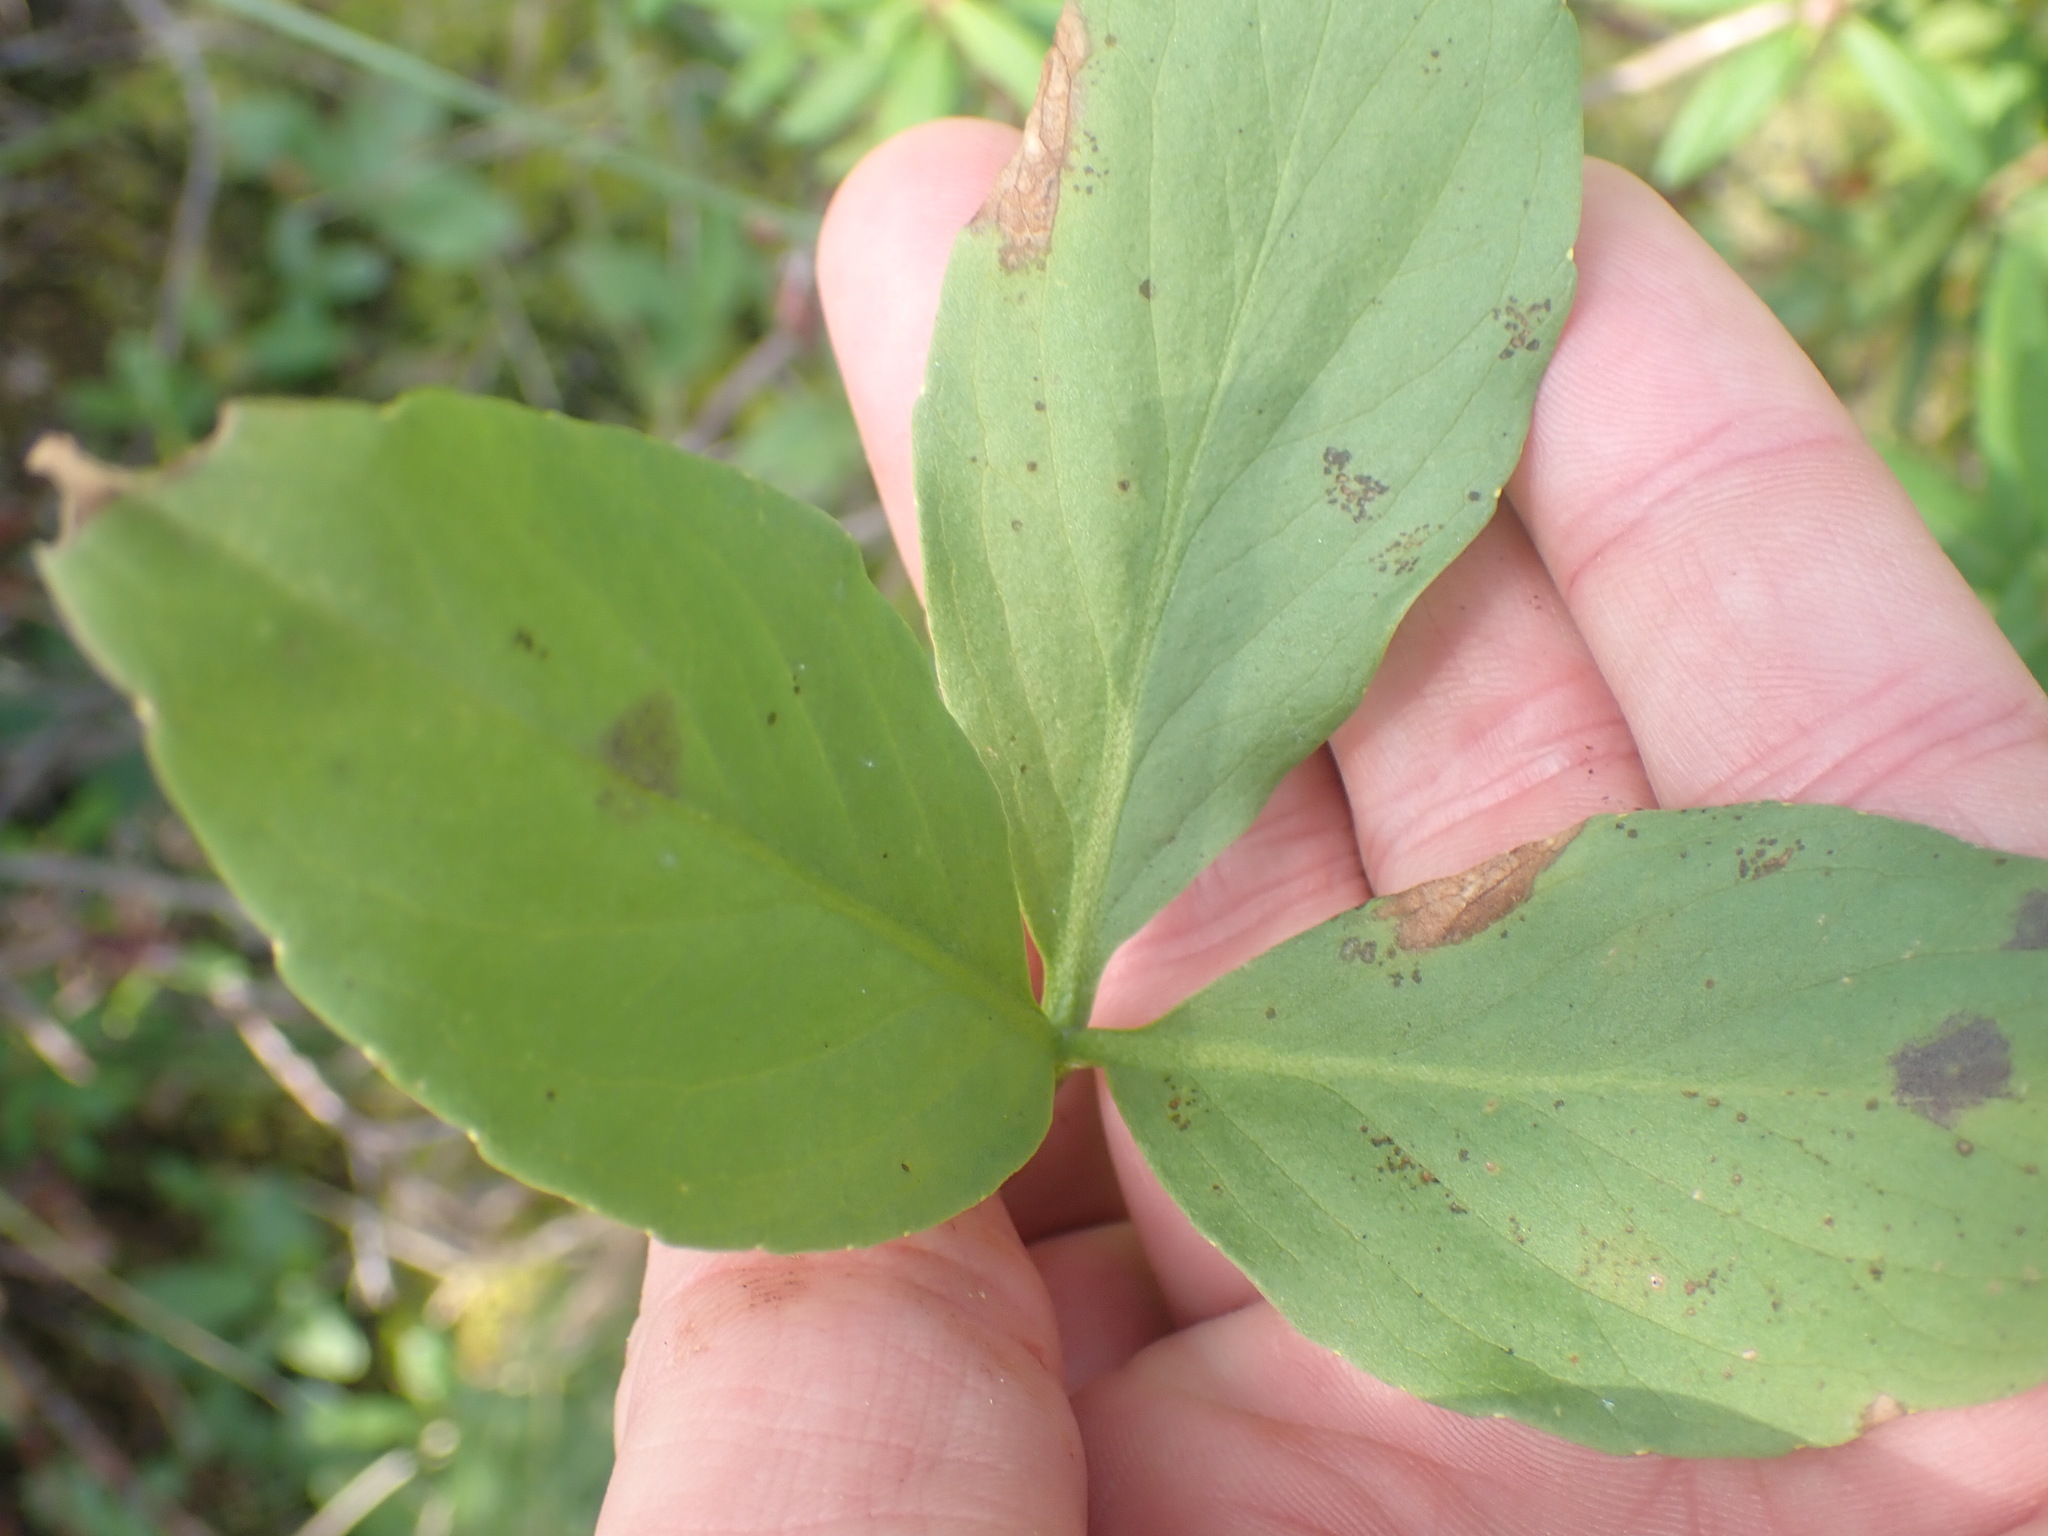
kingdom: Plantae
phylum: Tracheophyta
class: Magnoliopsida
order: Asterales
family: Menyanthaceae
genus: Menyanthes
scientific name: Menyanthes trifoliata
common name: Bogbean
